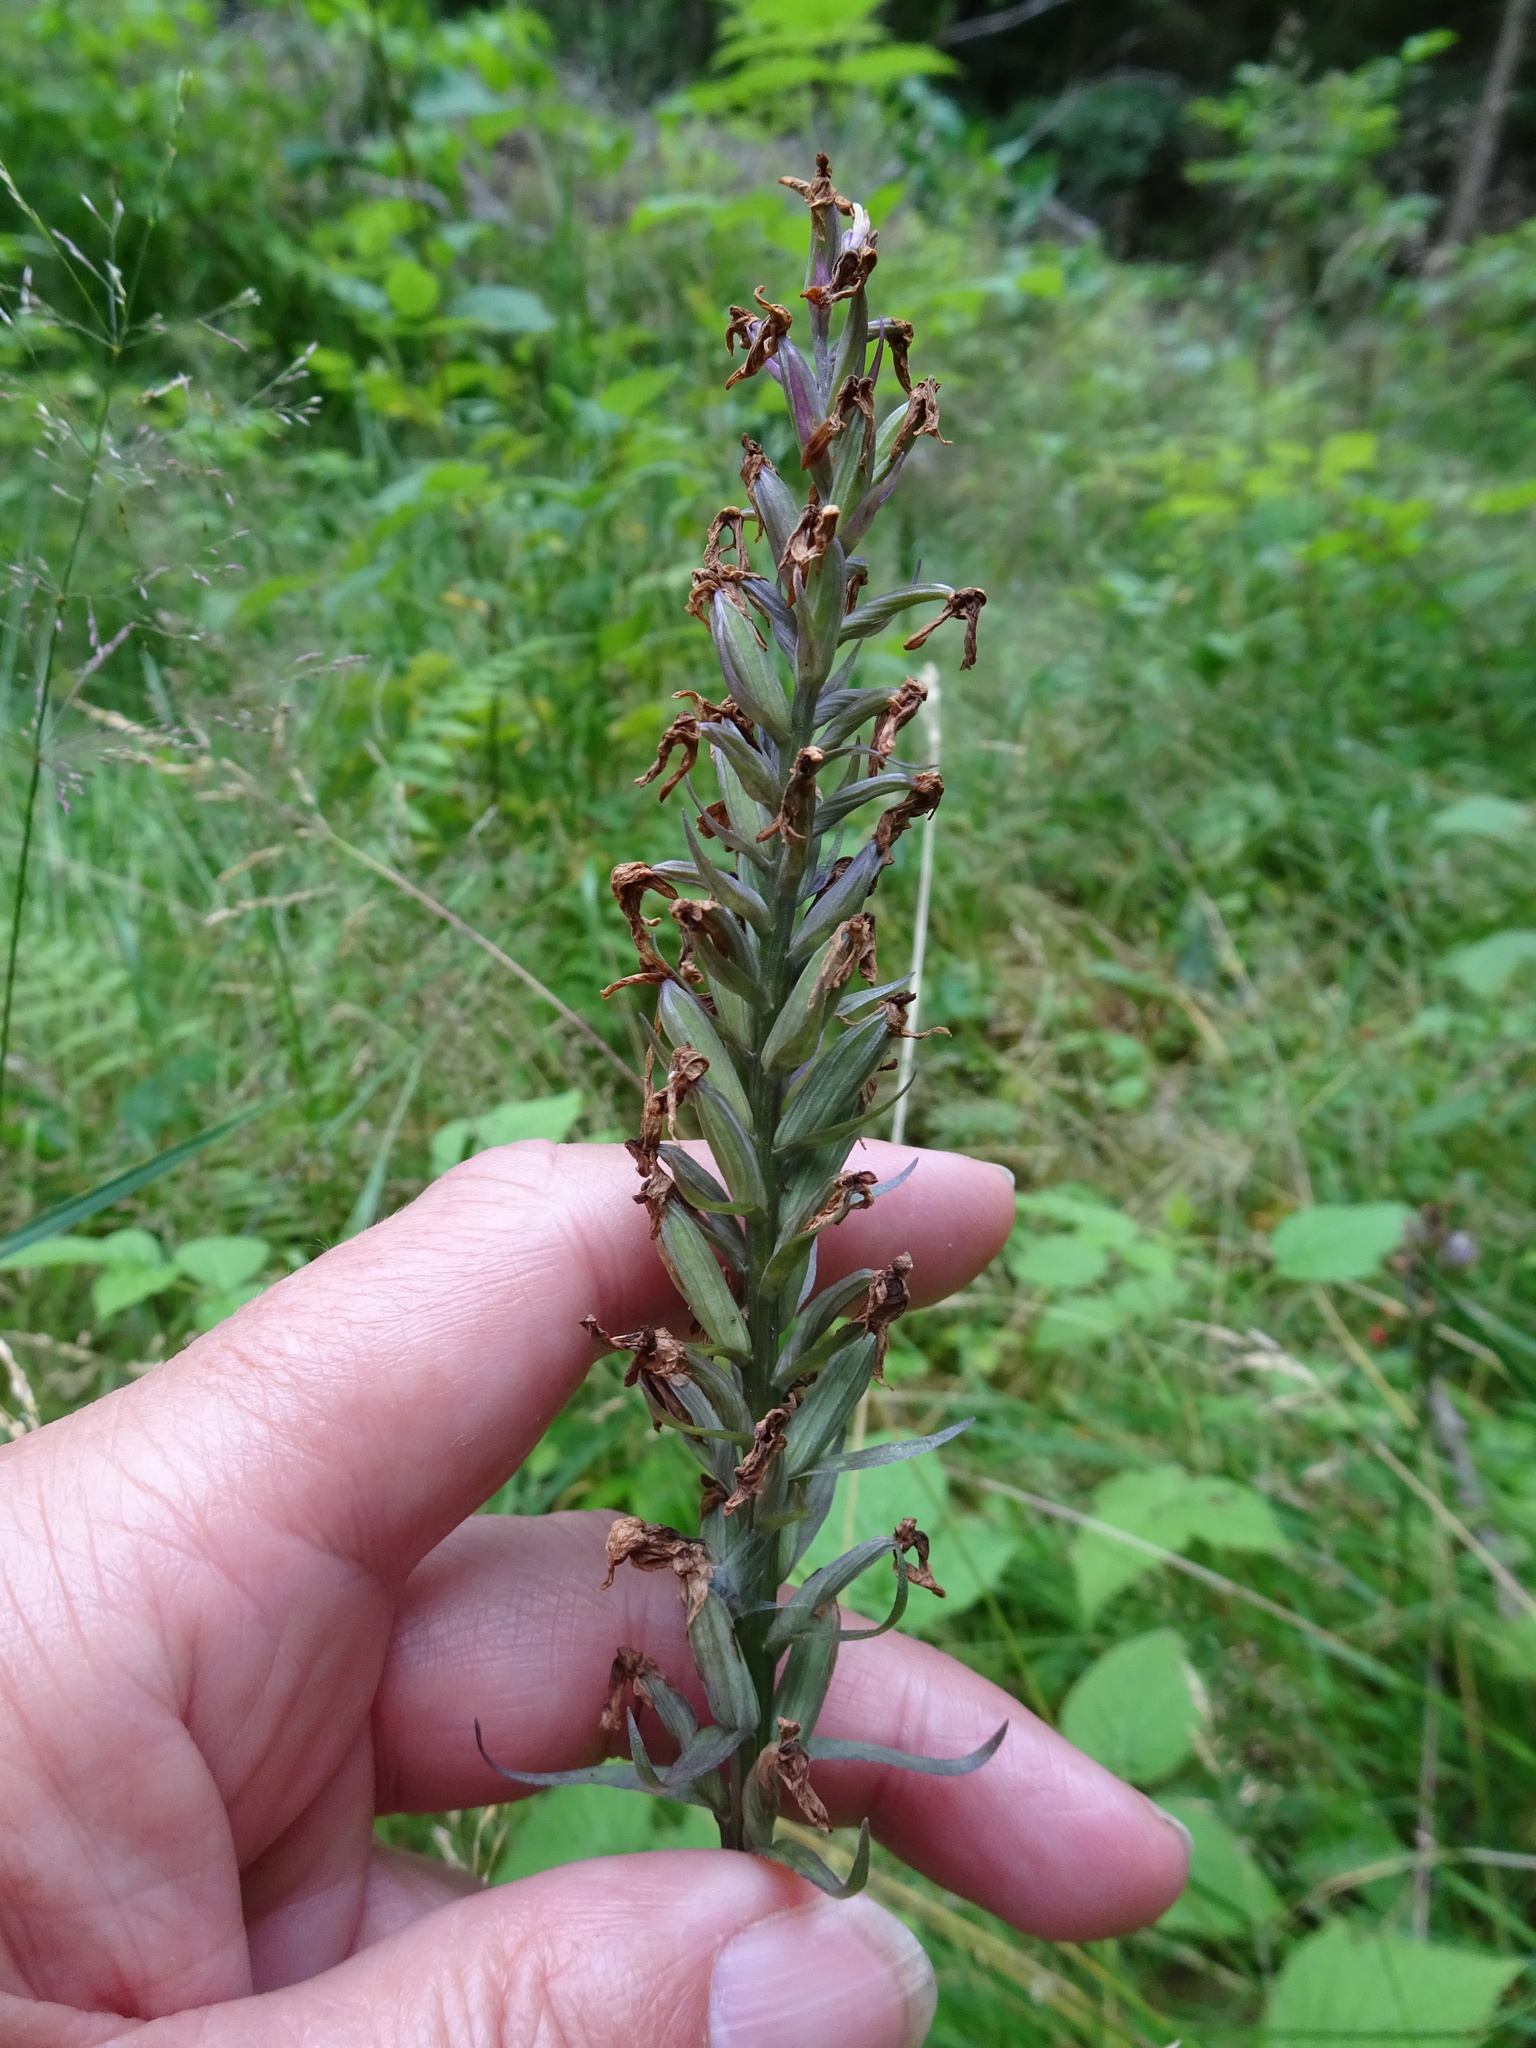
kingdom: Plantae
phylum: Tracheophyta
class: Liliopsida
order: Asparagales
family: Orchidaceae
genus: Dactylorhiza
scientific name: Dactylorhiza maculata
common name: Heath spotted-orchid
